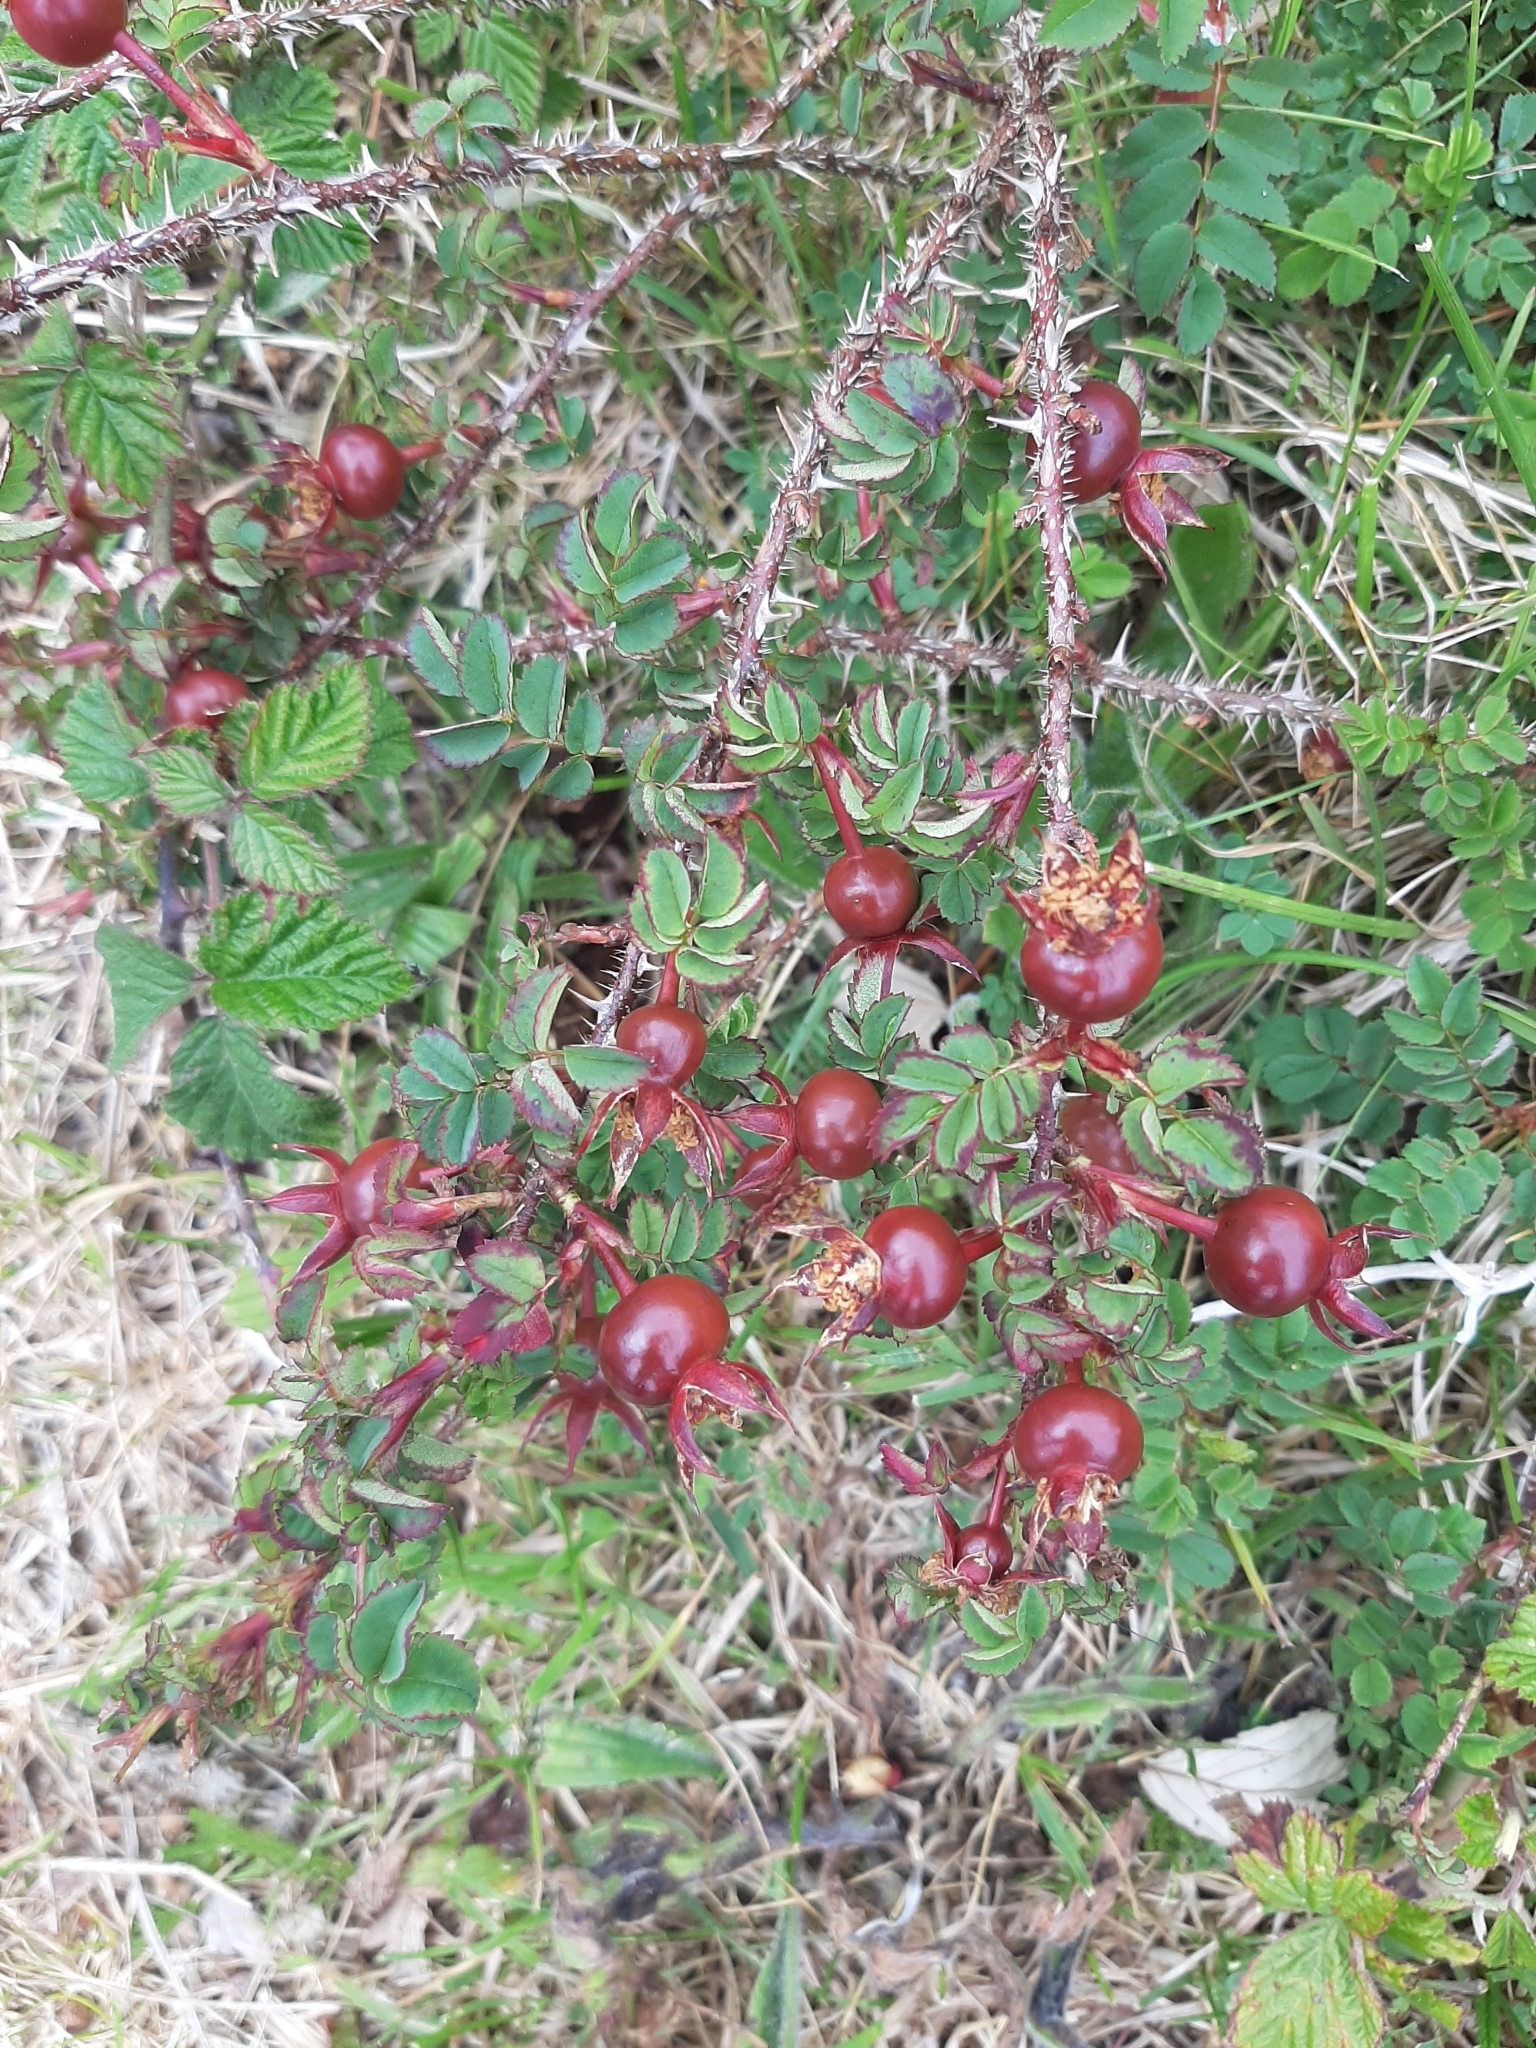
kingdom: Plantae
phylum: Tracheophyta
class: Magnoliopsida
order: Rosales
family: Rosaceae
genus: Rosa
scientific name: Rosa spinosissima
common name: Burnet rose
